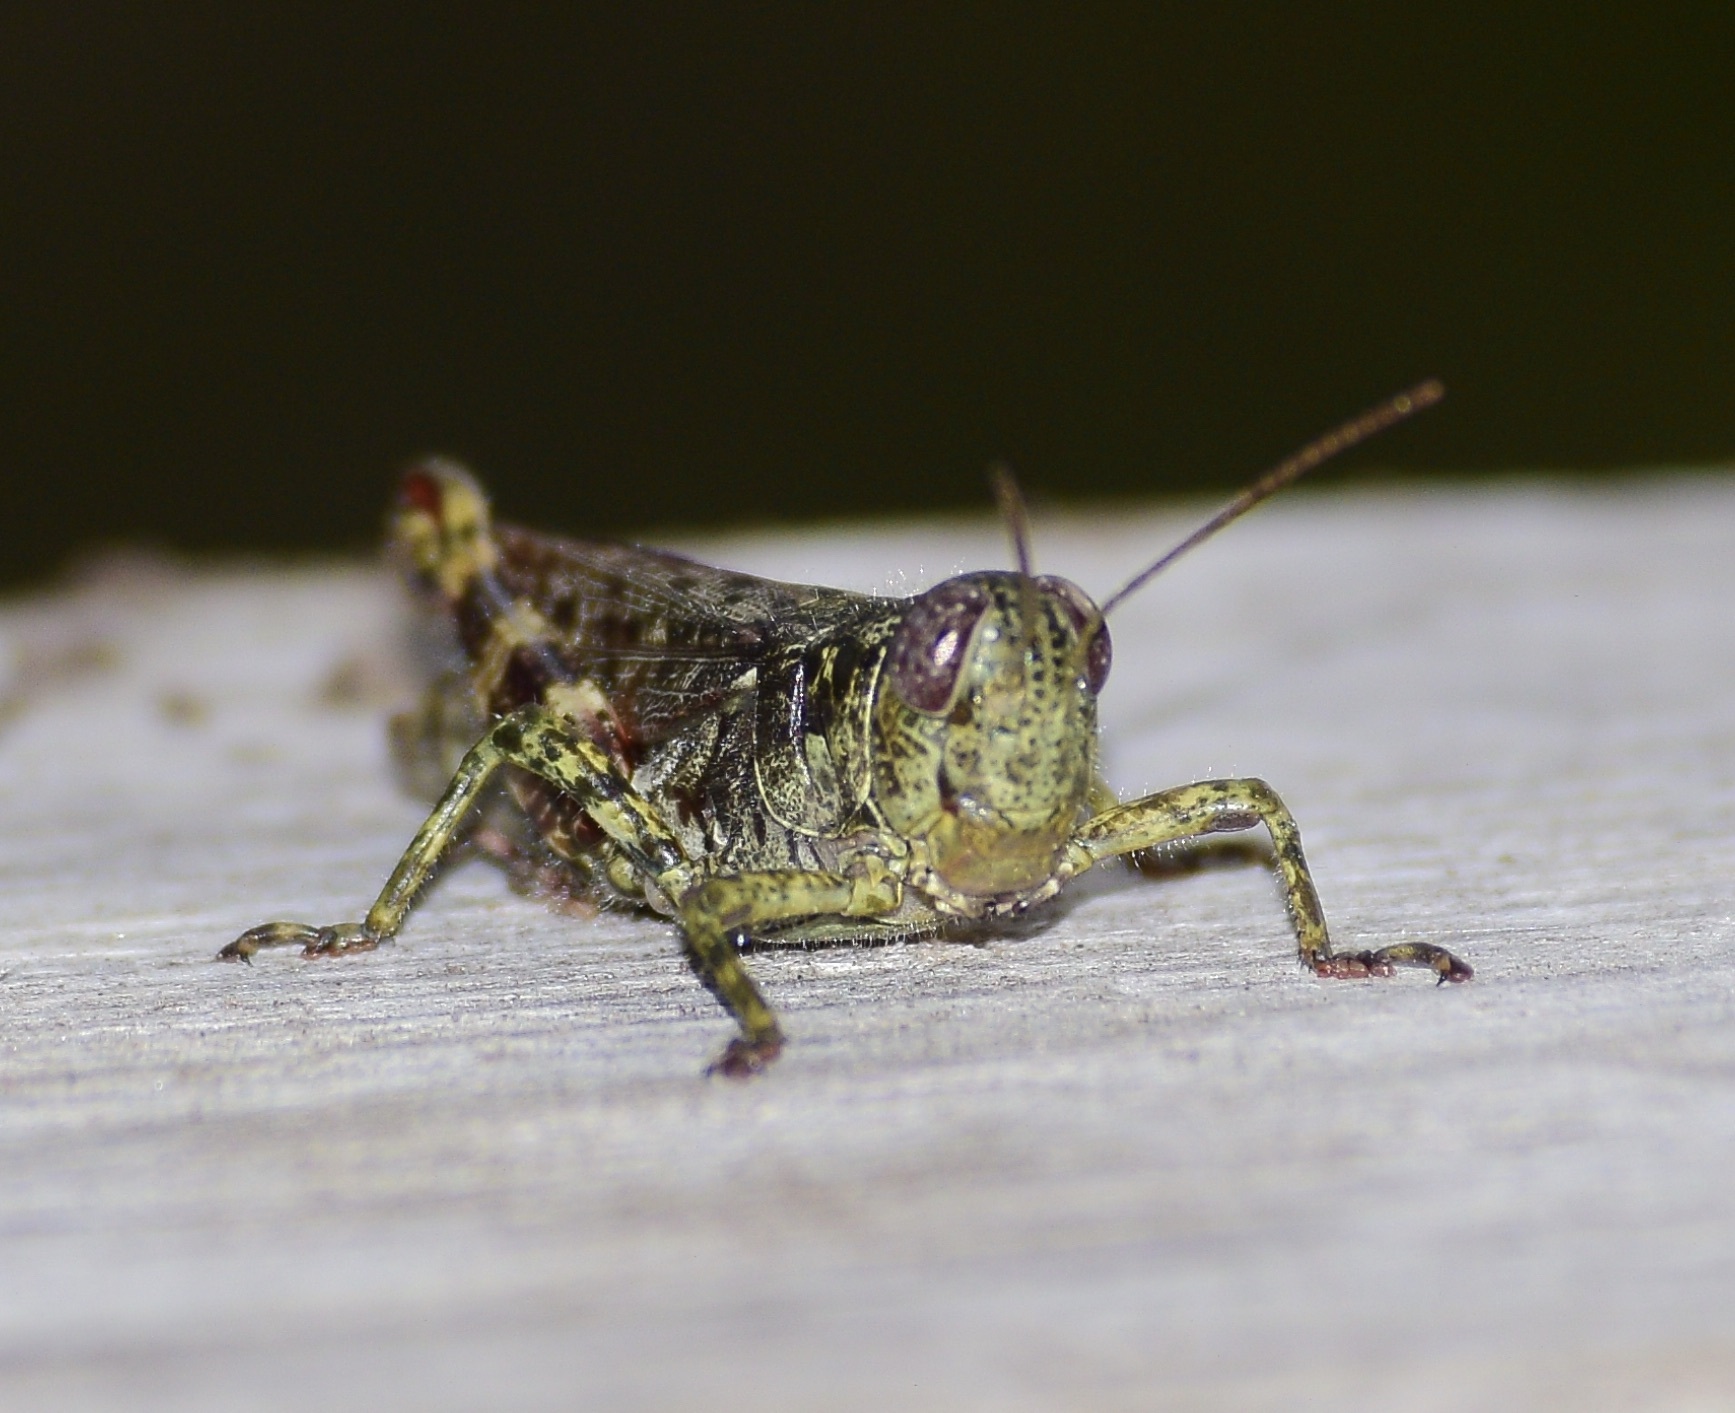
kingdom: Animalia
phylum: Arthropoda
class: Insecta
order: Orthoptera
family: Acrididae
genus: Melanoplus
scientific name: Melanoplus punctulatus
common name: Pine-tree spur-throat grasshopper
